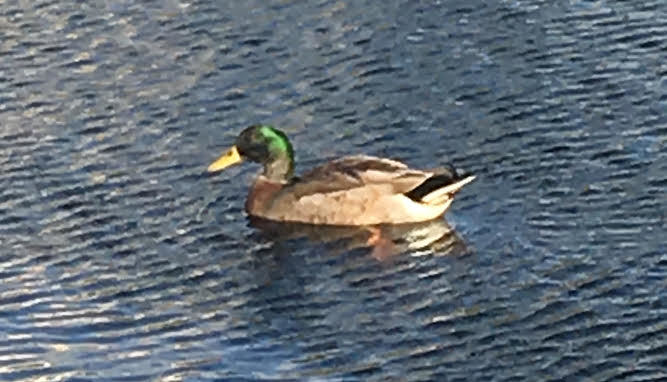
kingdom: Animalia
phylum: Chordata
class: Aves
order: Anseriformes
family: Anatidae
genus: Anas
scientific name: Anas platyrhynchos
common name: Mallard
